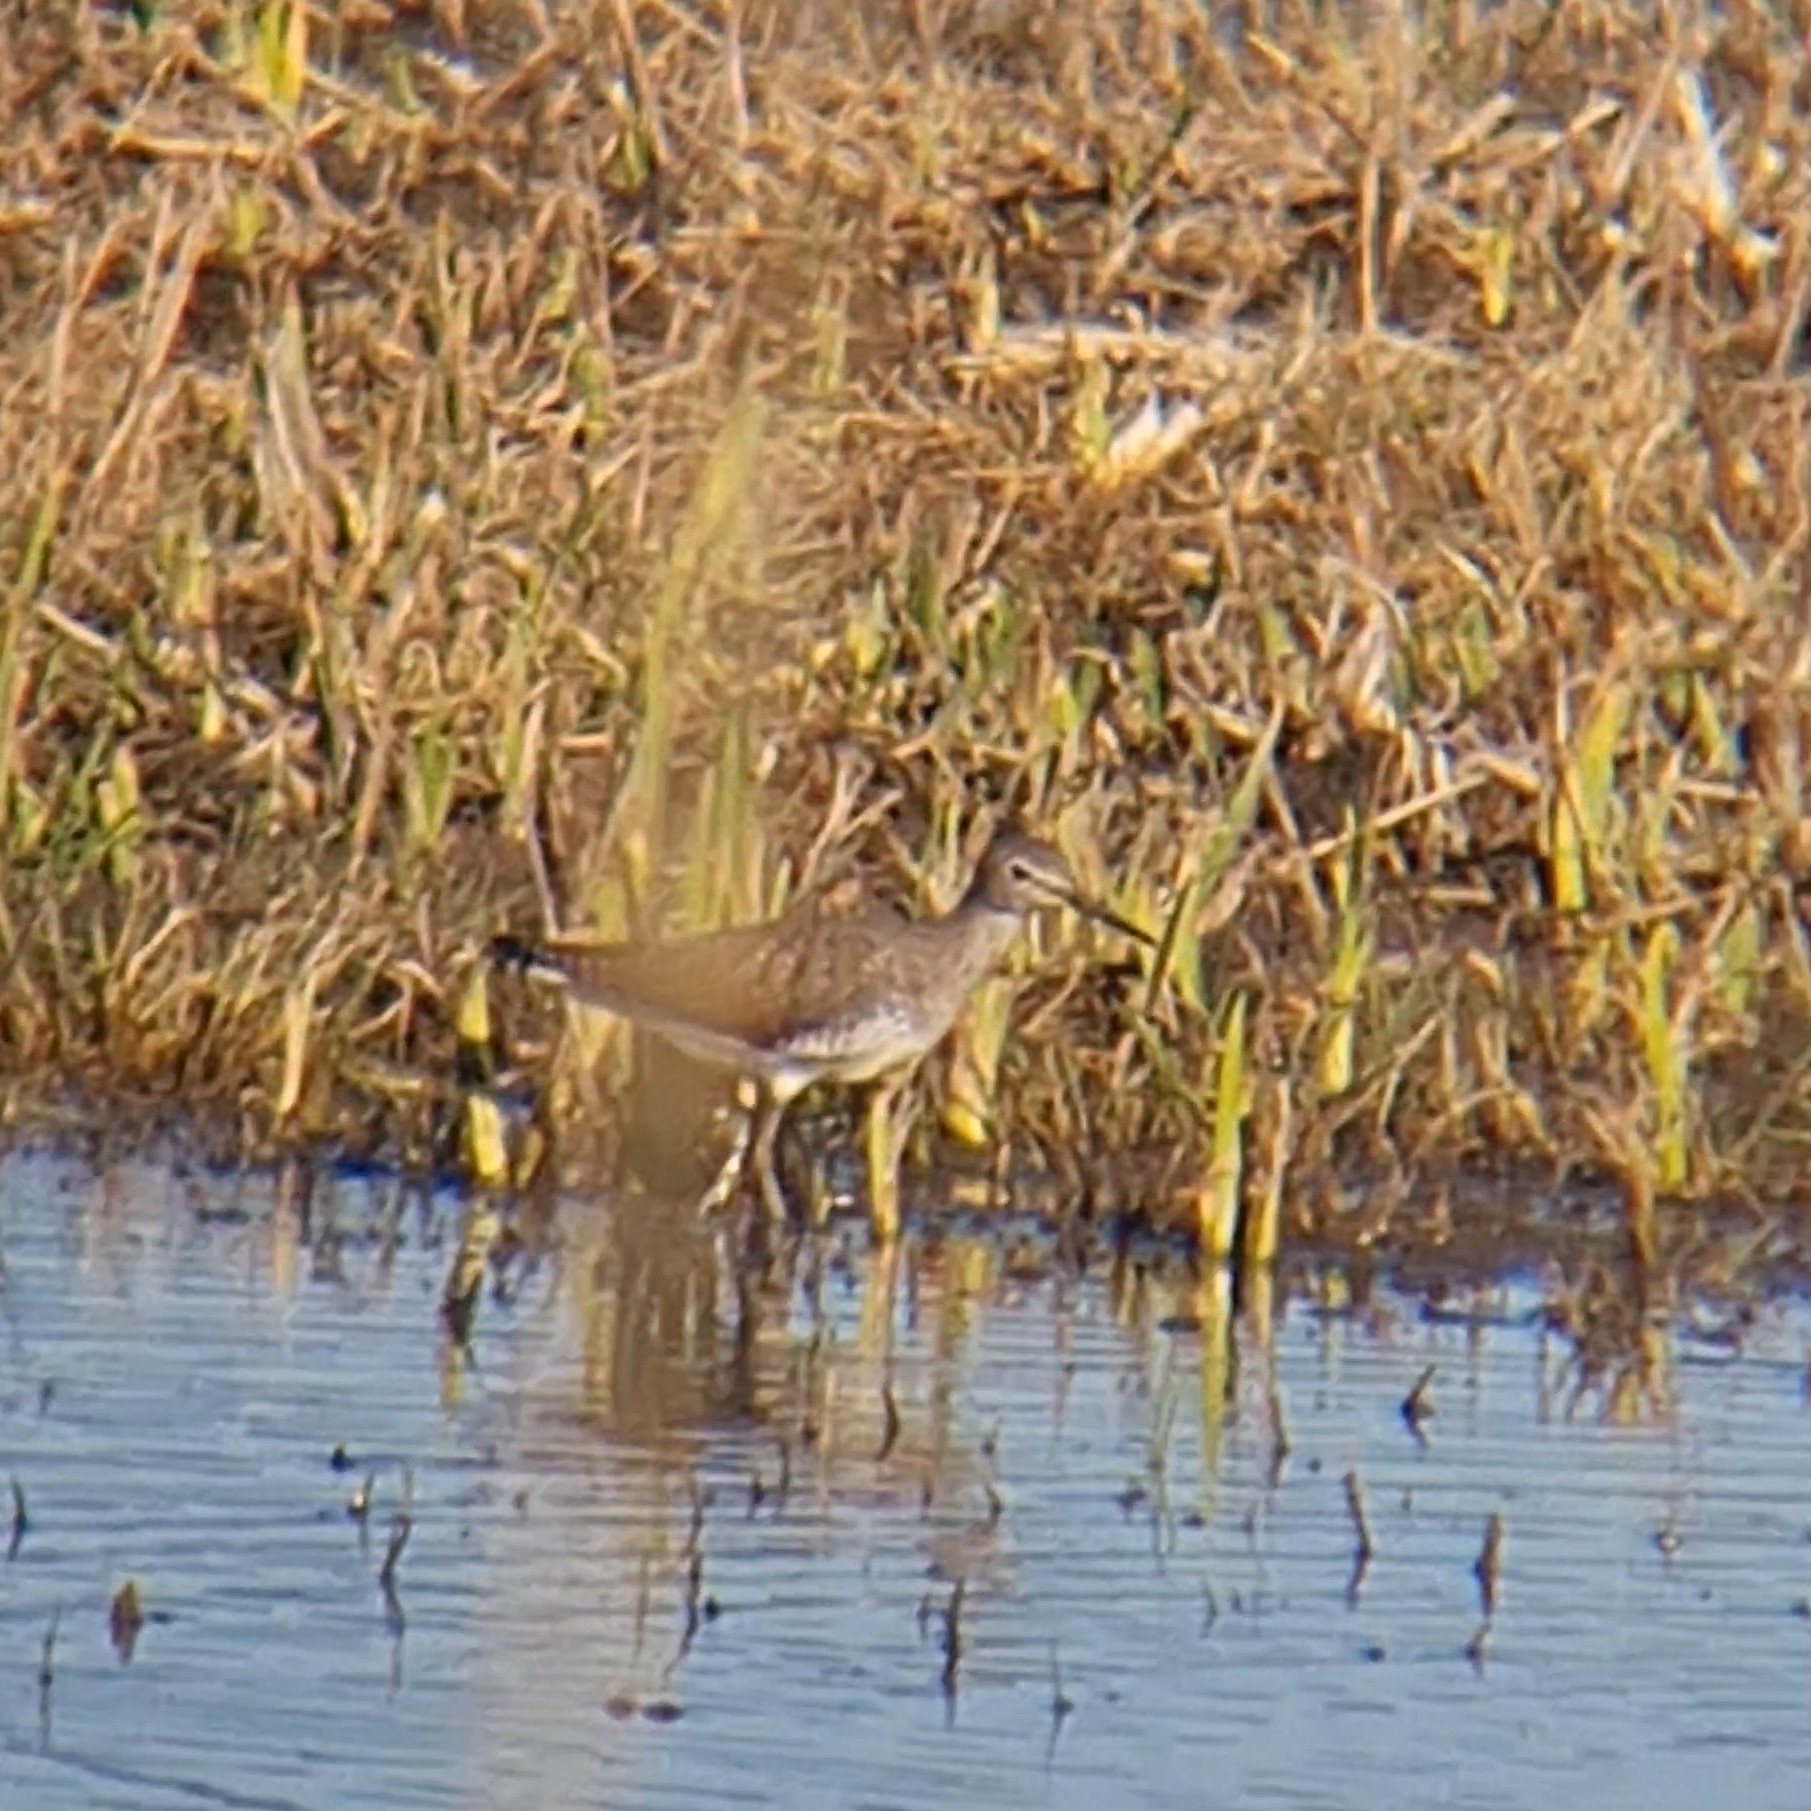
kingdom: Animalia
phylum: Chordata
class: Aves
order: Charadriiformes
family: Scolopacidae
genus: Tringa
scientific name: Tringa ochropus
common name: Green sandpiper
